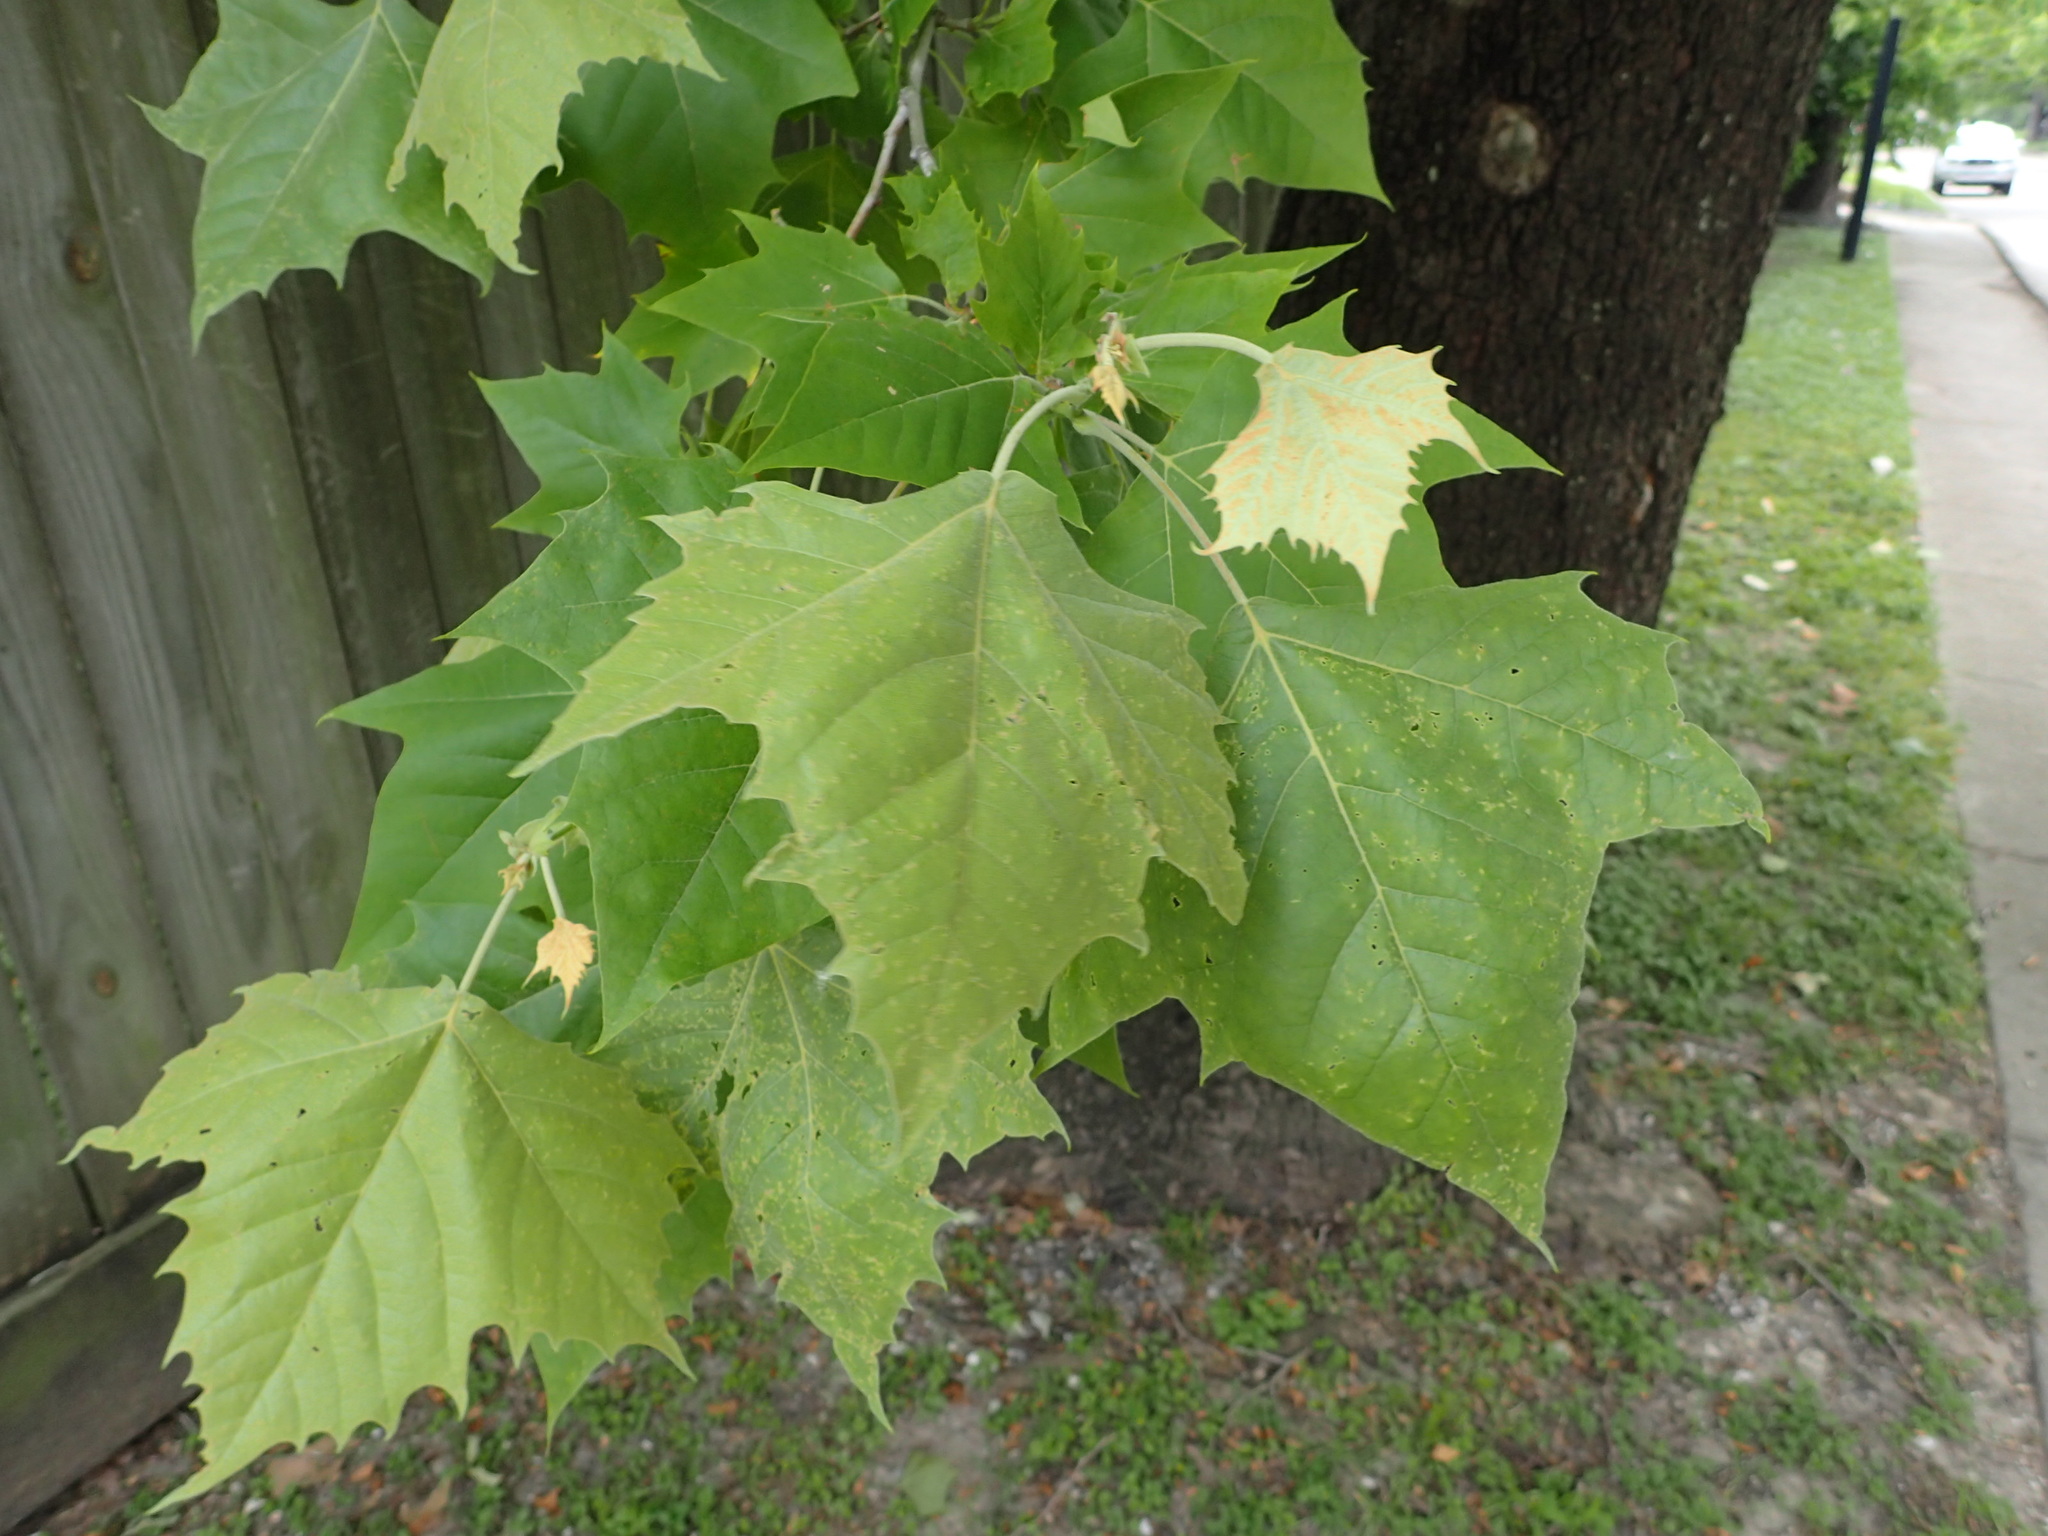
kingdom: Plantae
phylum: Tracheophyta
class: Magnoliopsida
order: Proteales
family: Platanaceae
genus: Platanus
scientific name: Platanus occidentalis
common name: American sycamore
